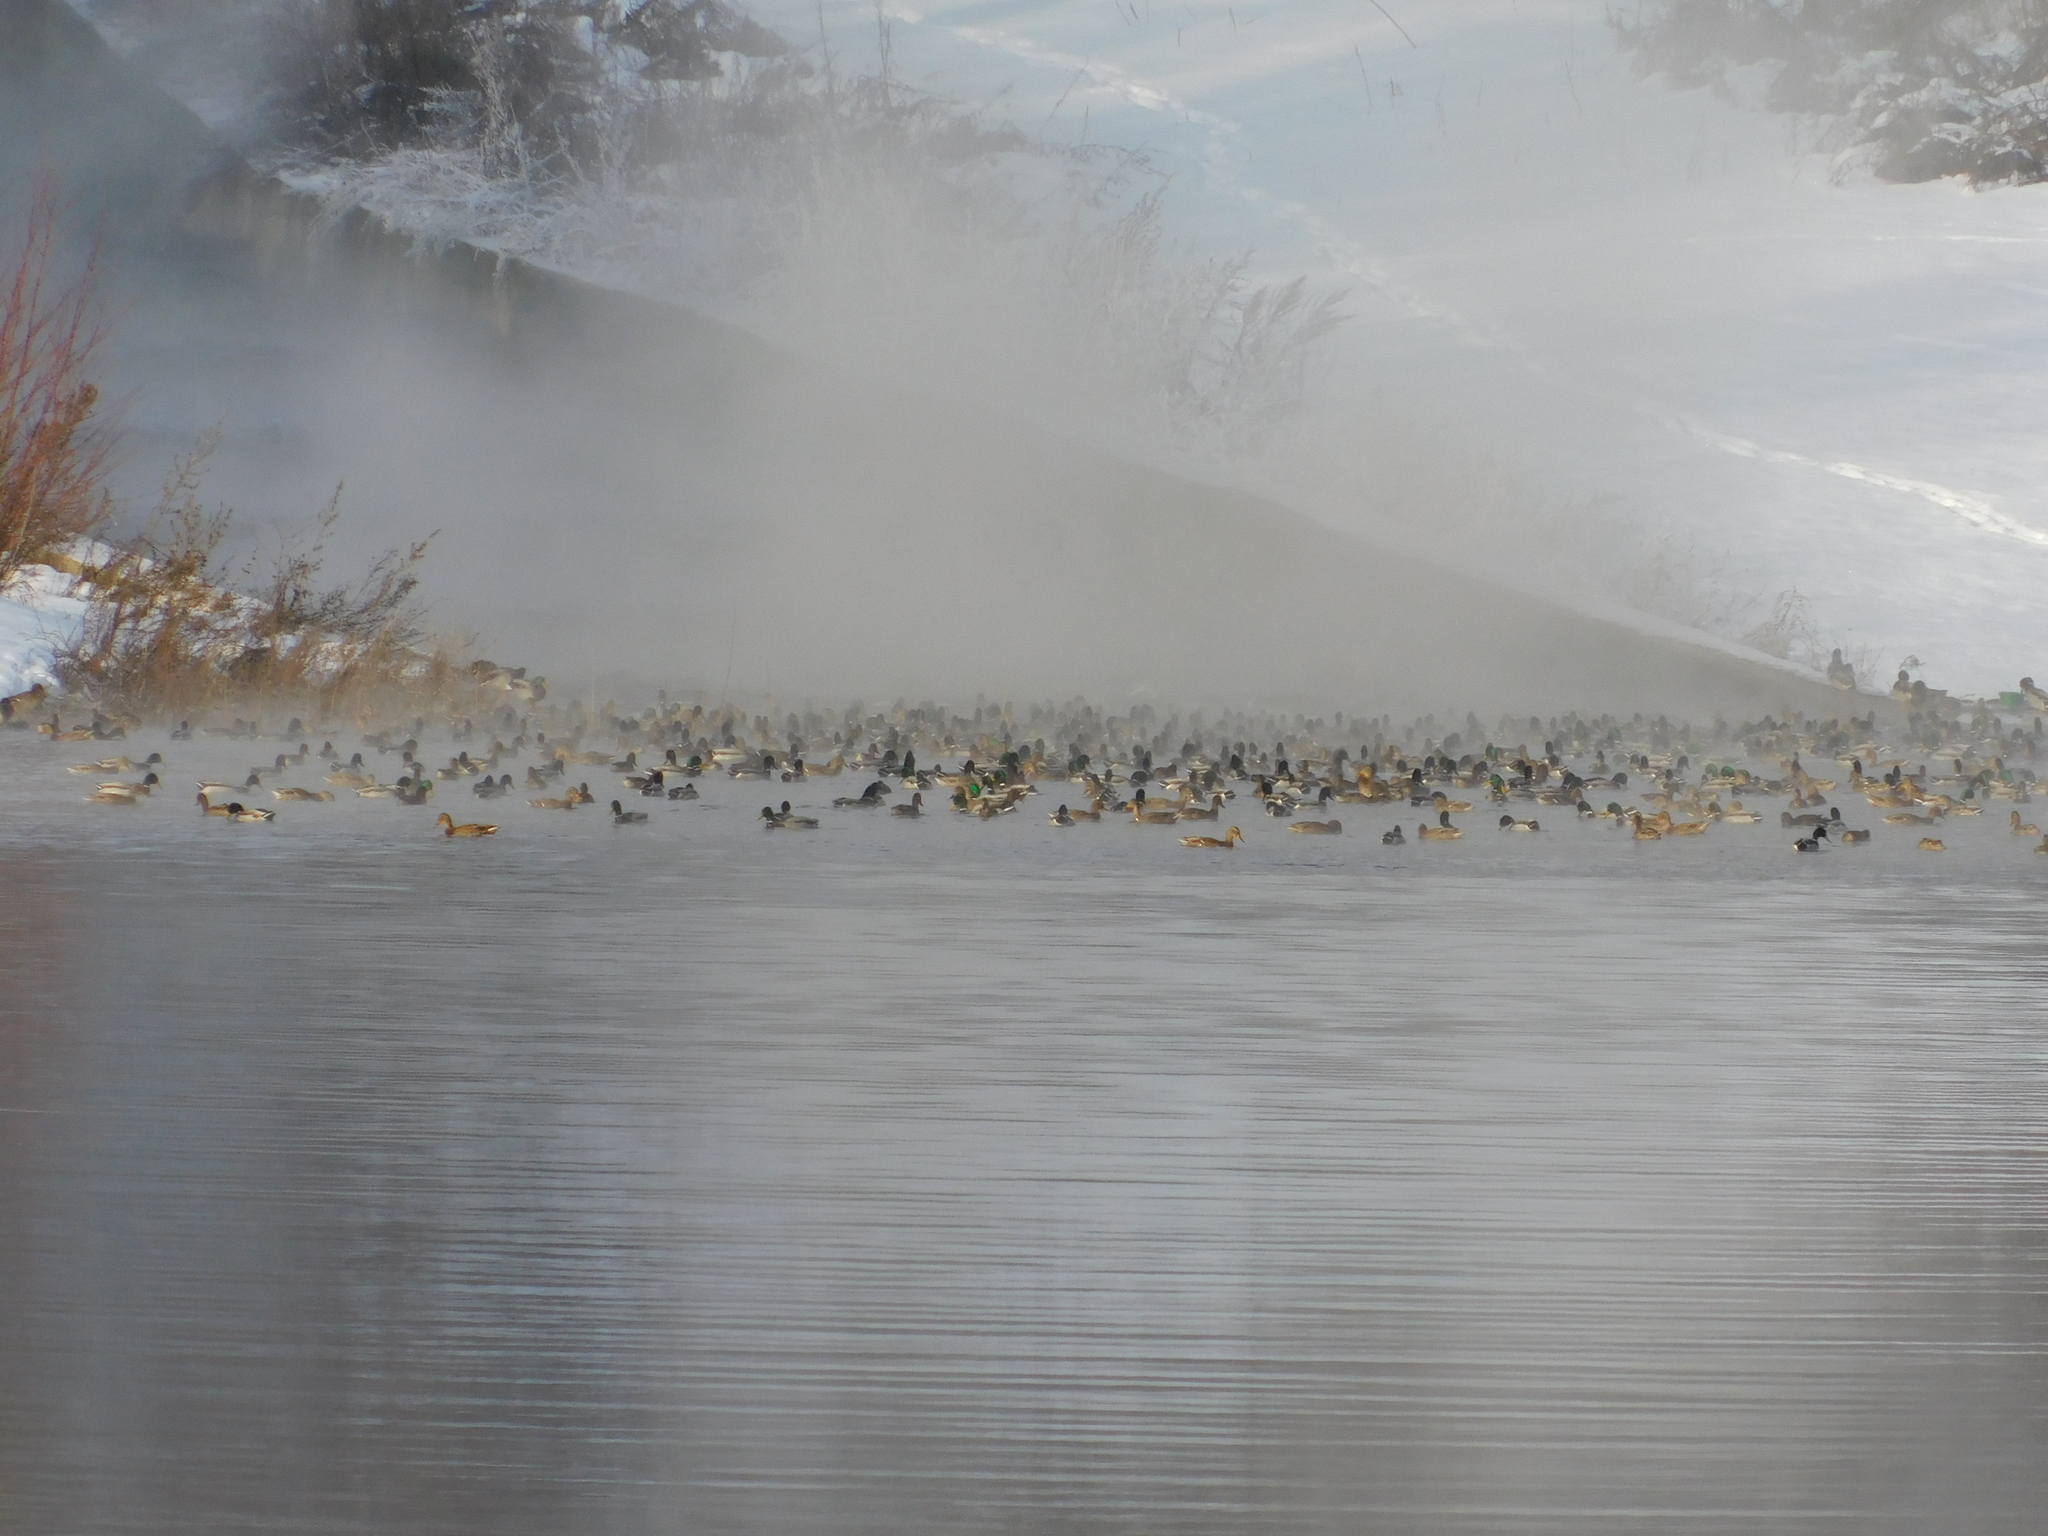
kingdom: Animalia
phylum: Chordata
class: Aves
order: Anseriformes
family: Anatidae
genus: Anas
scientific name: Anas platyrhynchos
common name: Mallard
